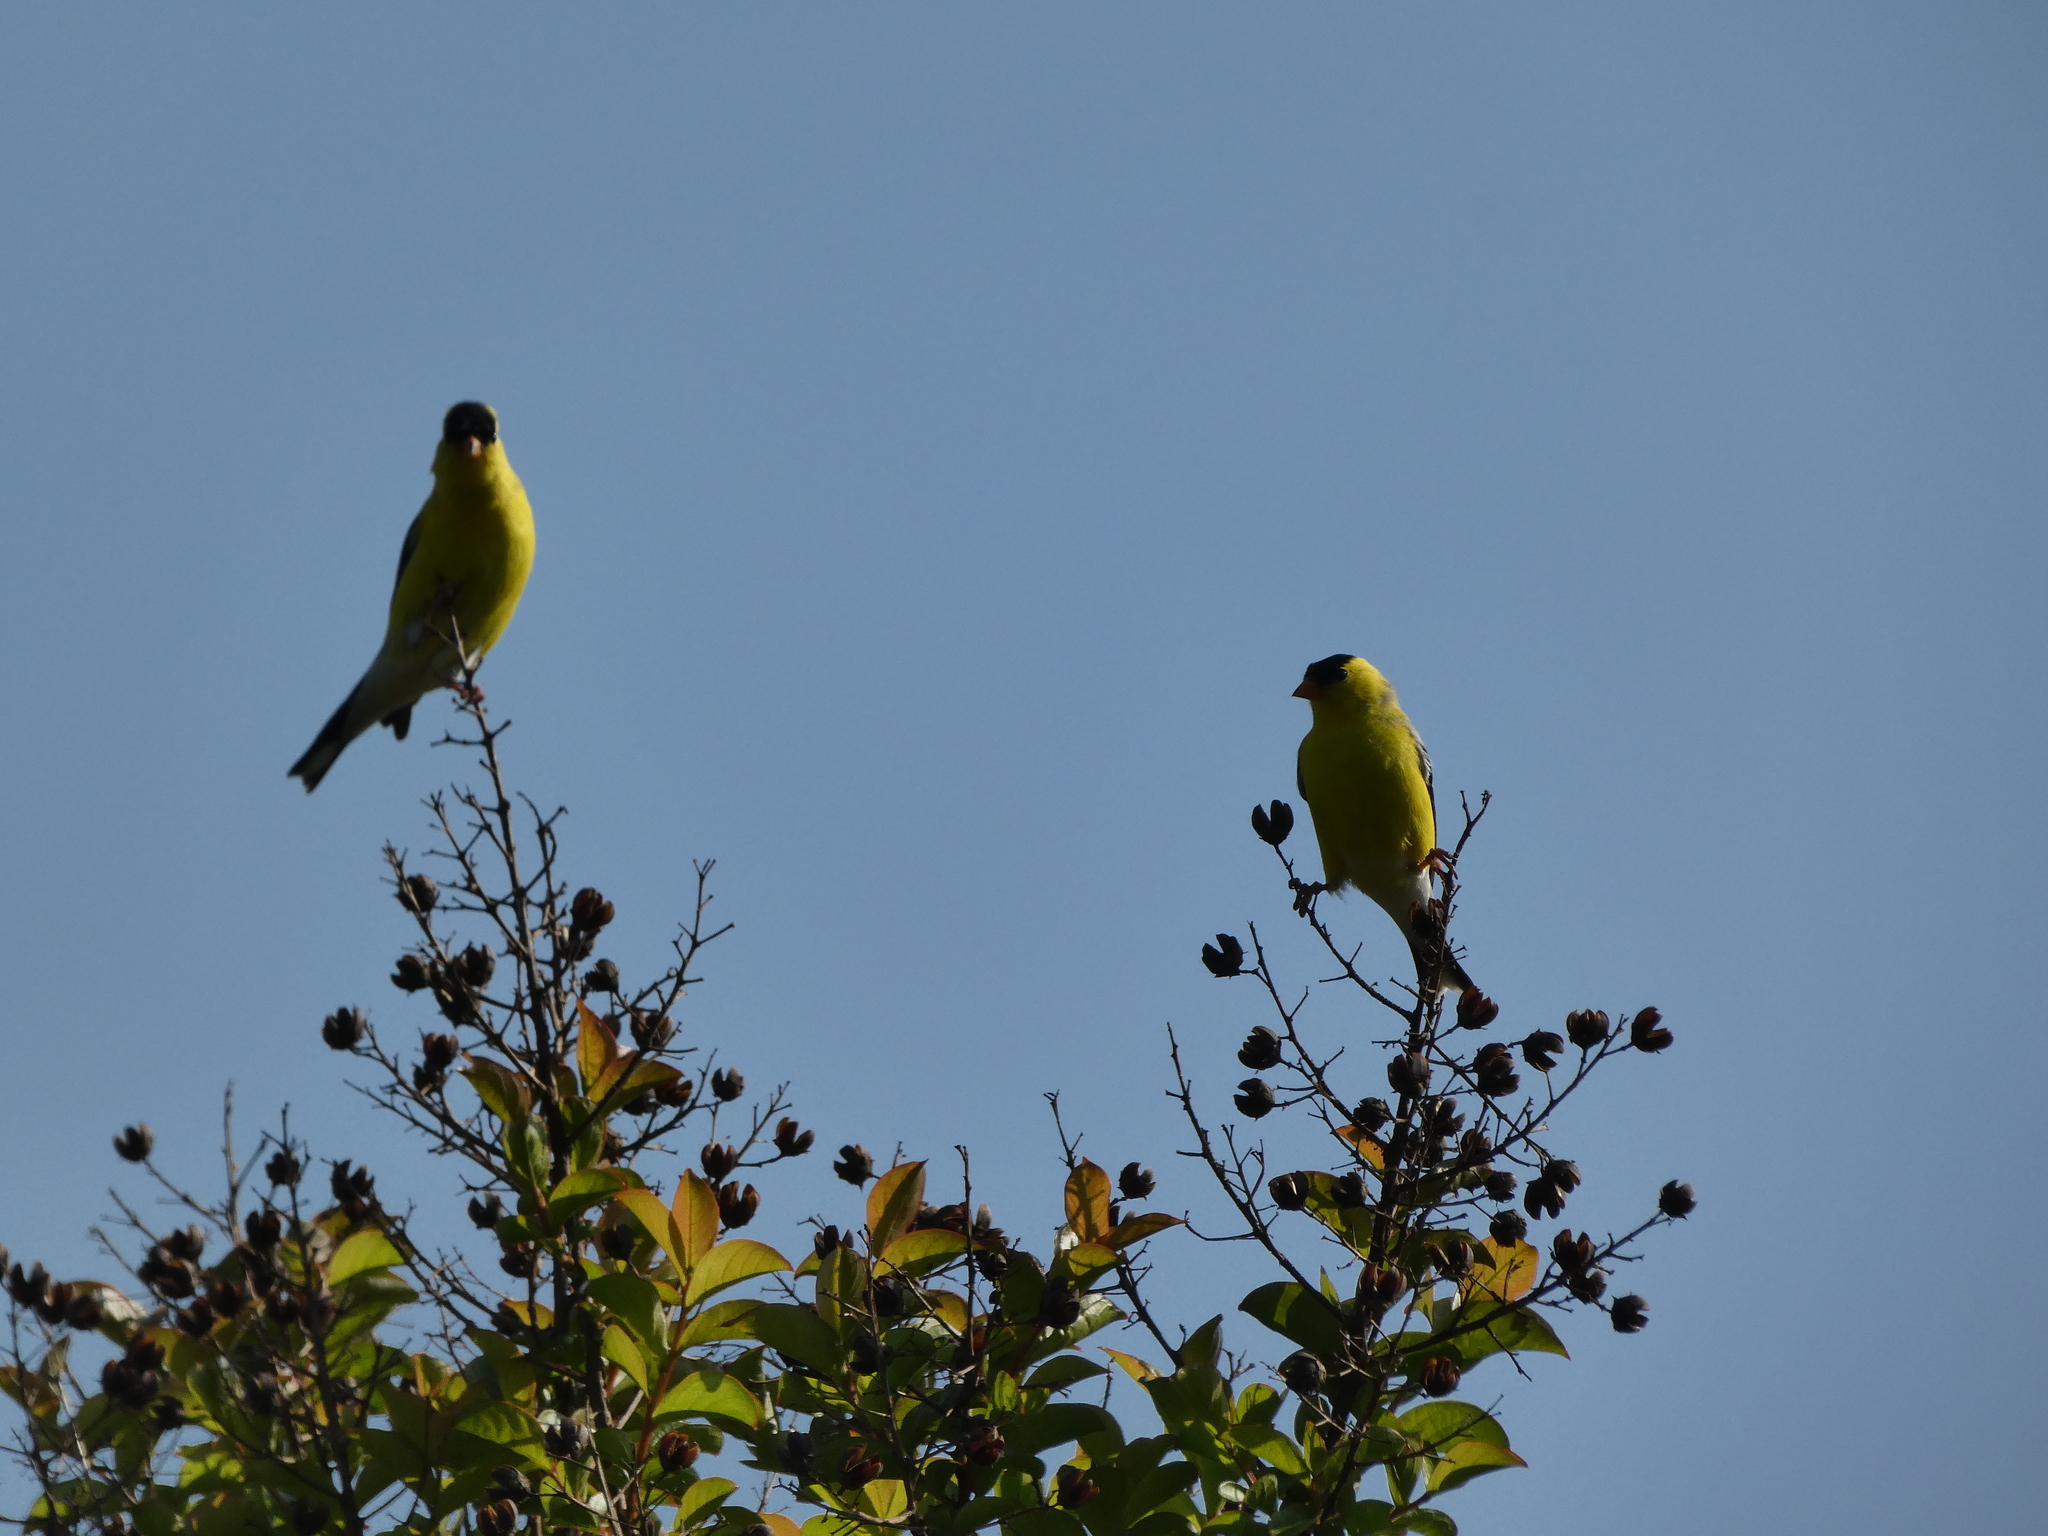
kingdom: Animalia
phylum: Chordata
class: Aves
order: Passeriformes
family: Fringillidae
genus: Spinus
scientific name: Spinus tristis
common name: American goldfinch
